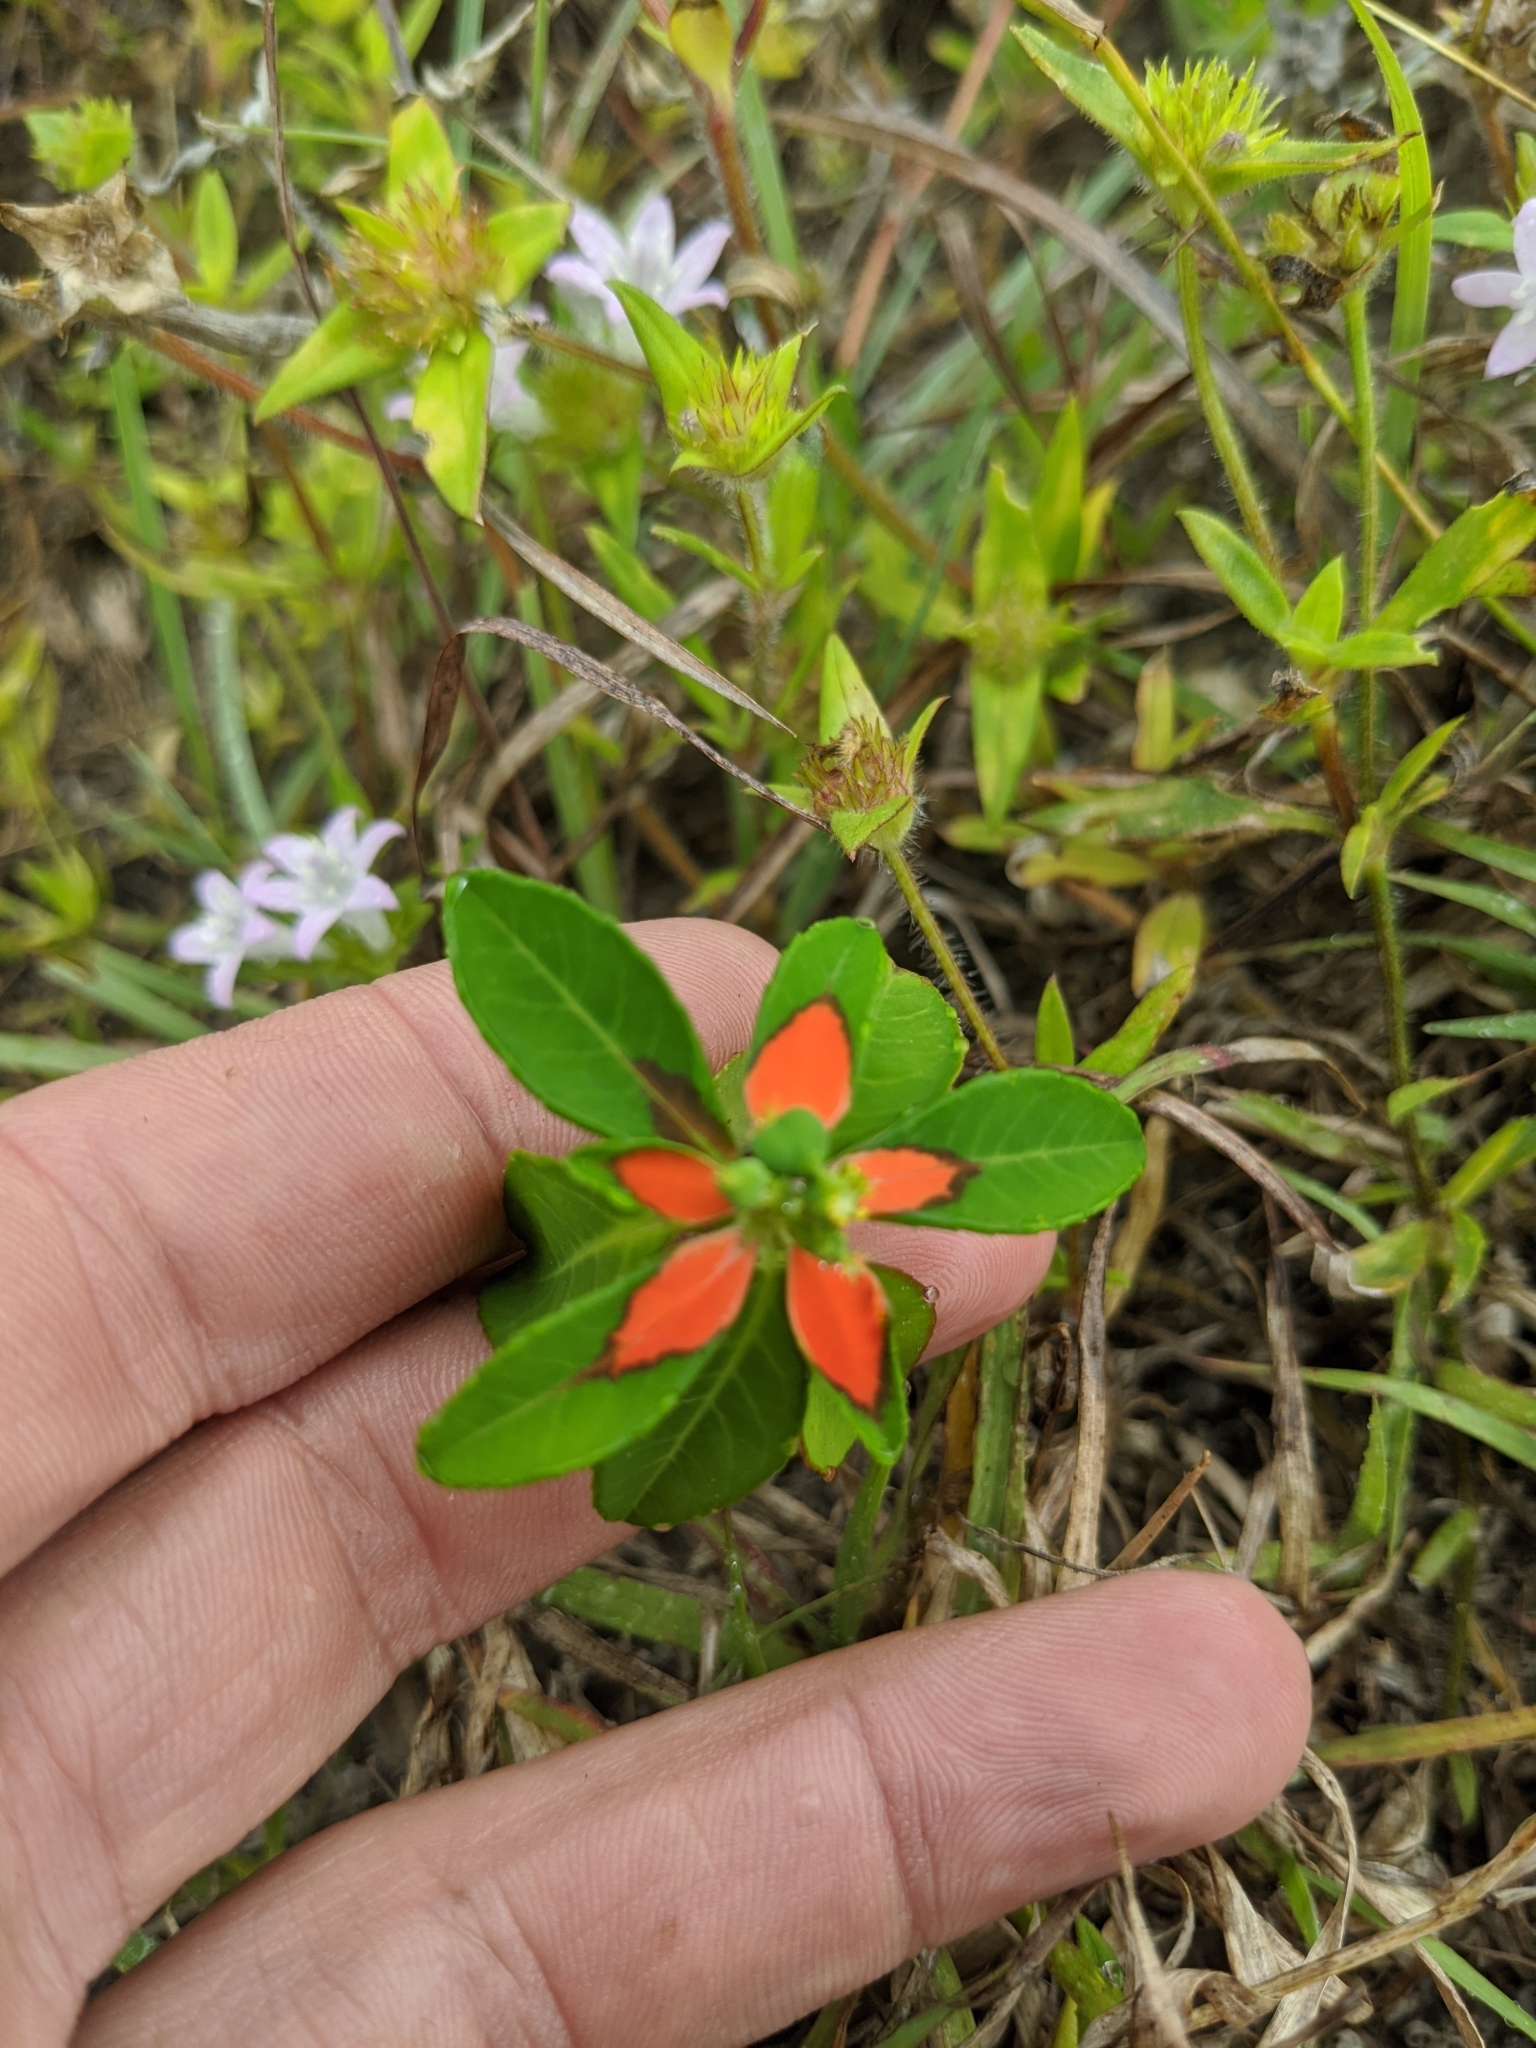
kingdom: Plantae
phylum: Tracheophyta
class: Magnoliopsida
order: Malpighiales
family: Euphorbiaceae
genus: Euphorbia
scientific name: Euphorbia heterophylla
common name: Mexican fireplant
